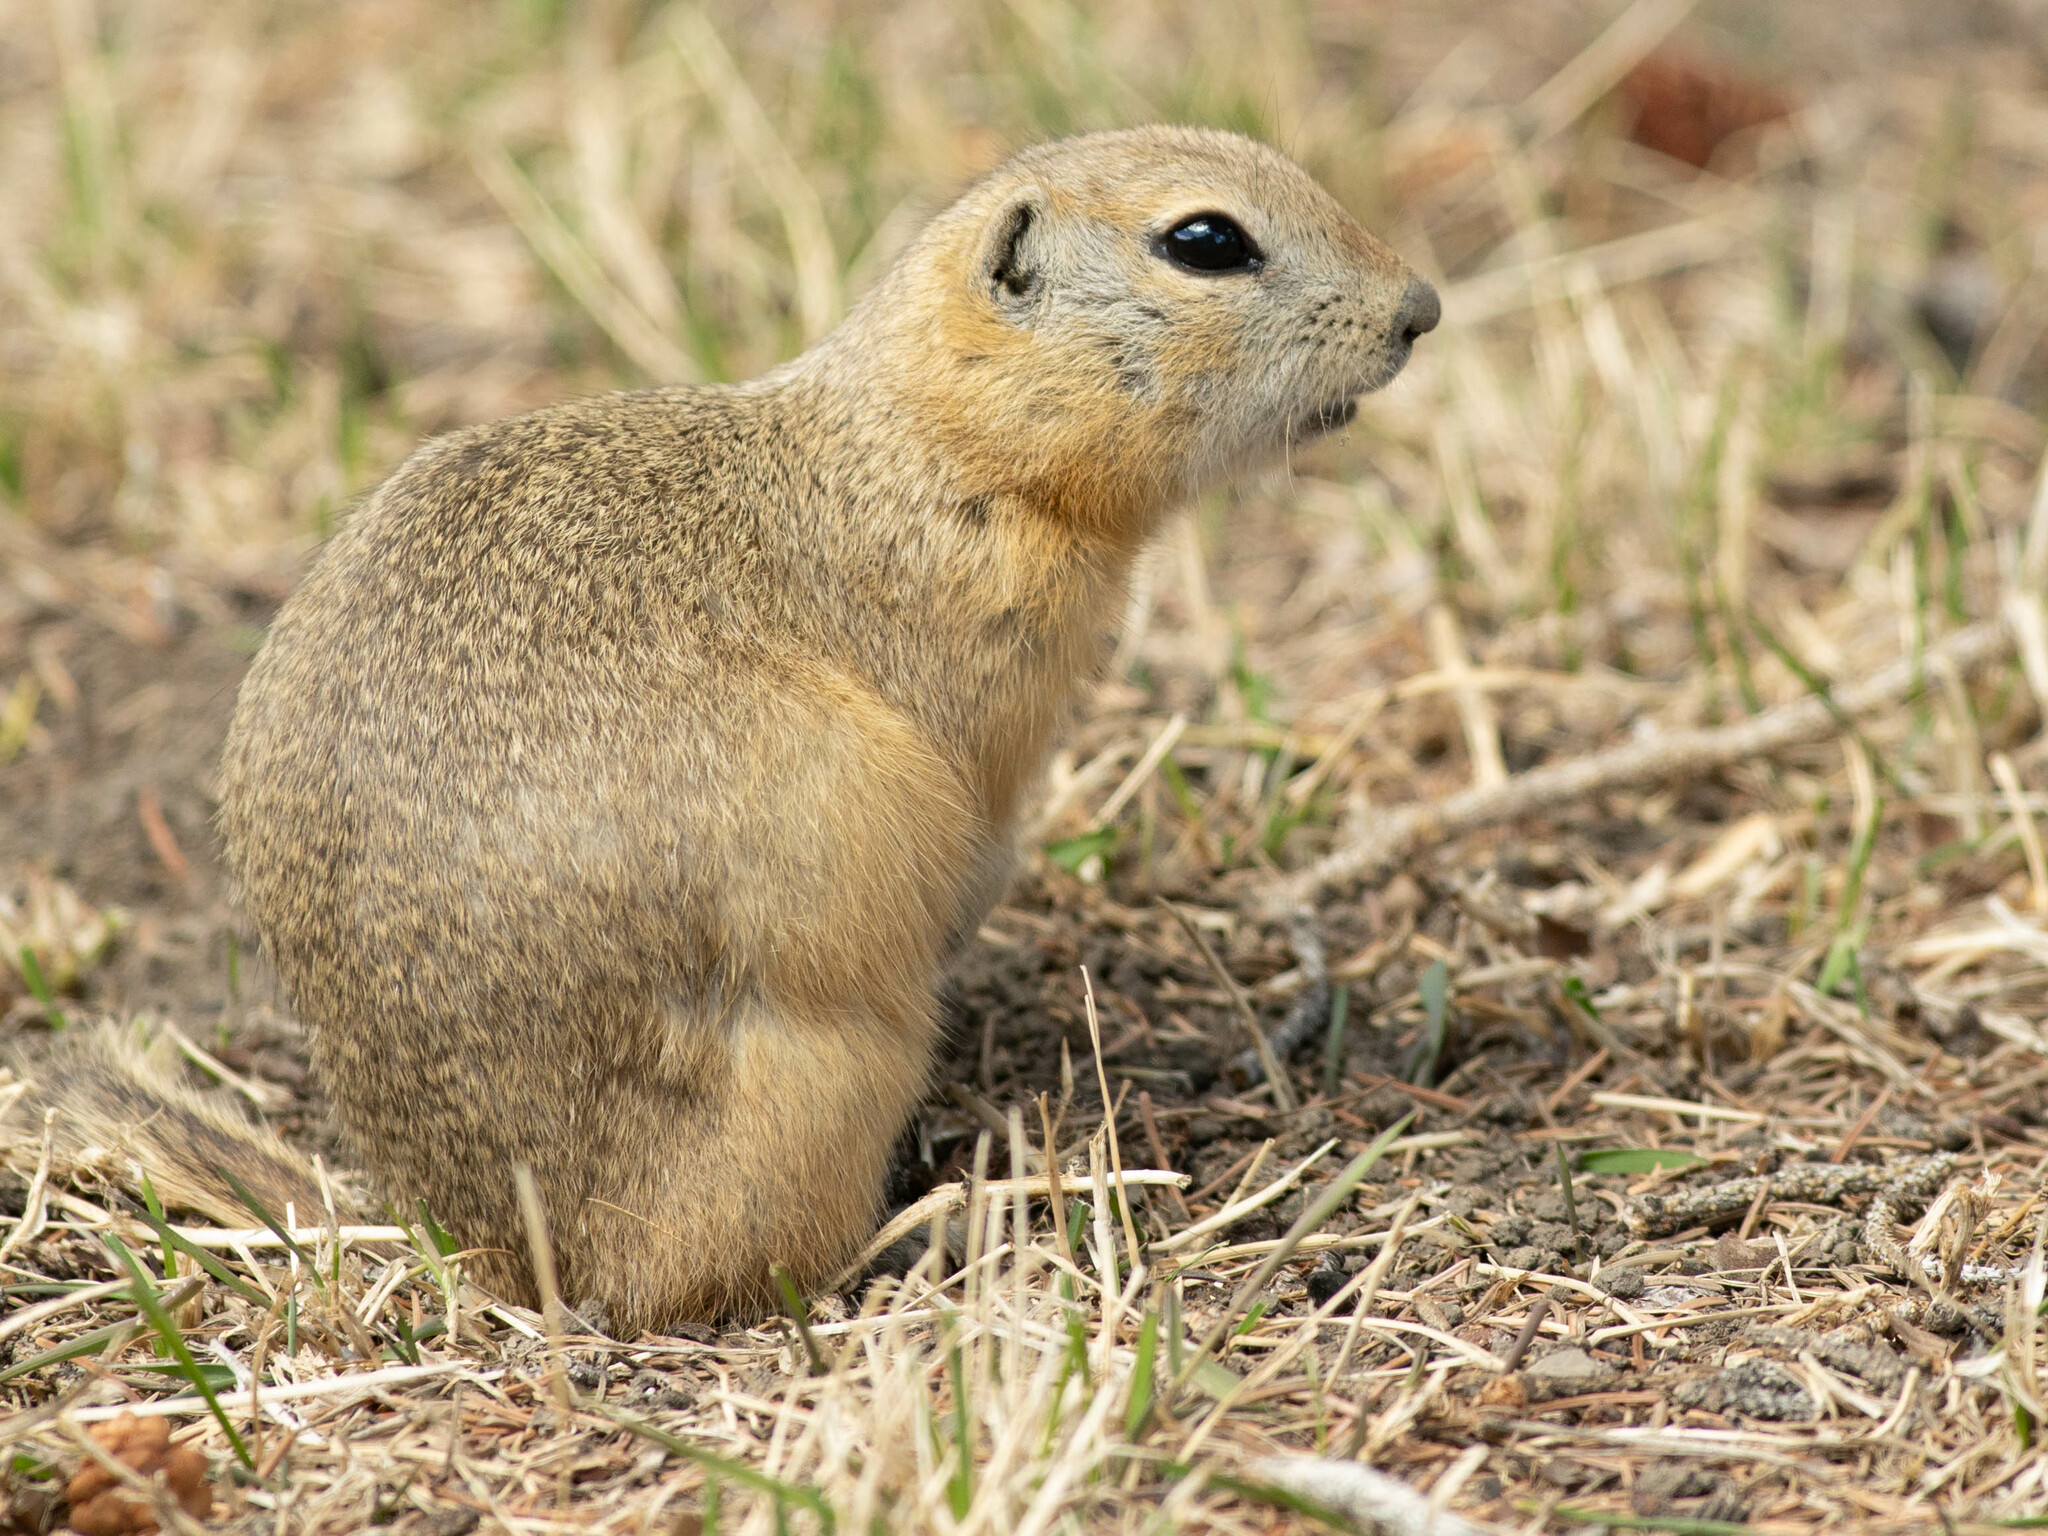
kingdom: Animalia
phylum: Chordata
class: Mammalia
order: Rodentia
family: Sciuridae
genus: Urocitellus
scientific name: Urocitellus richardsonii
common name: Richardson's ground squirrel
